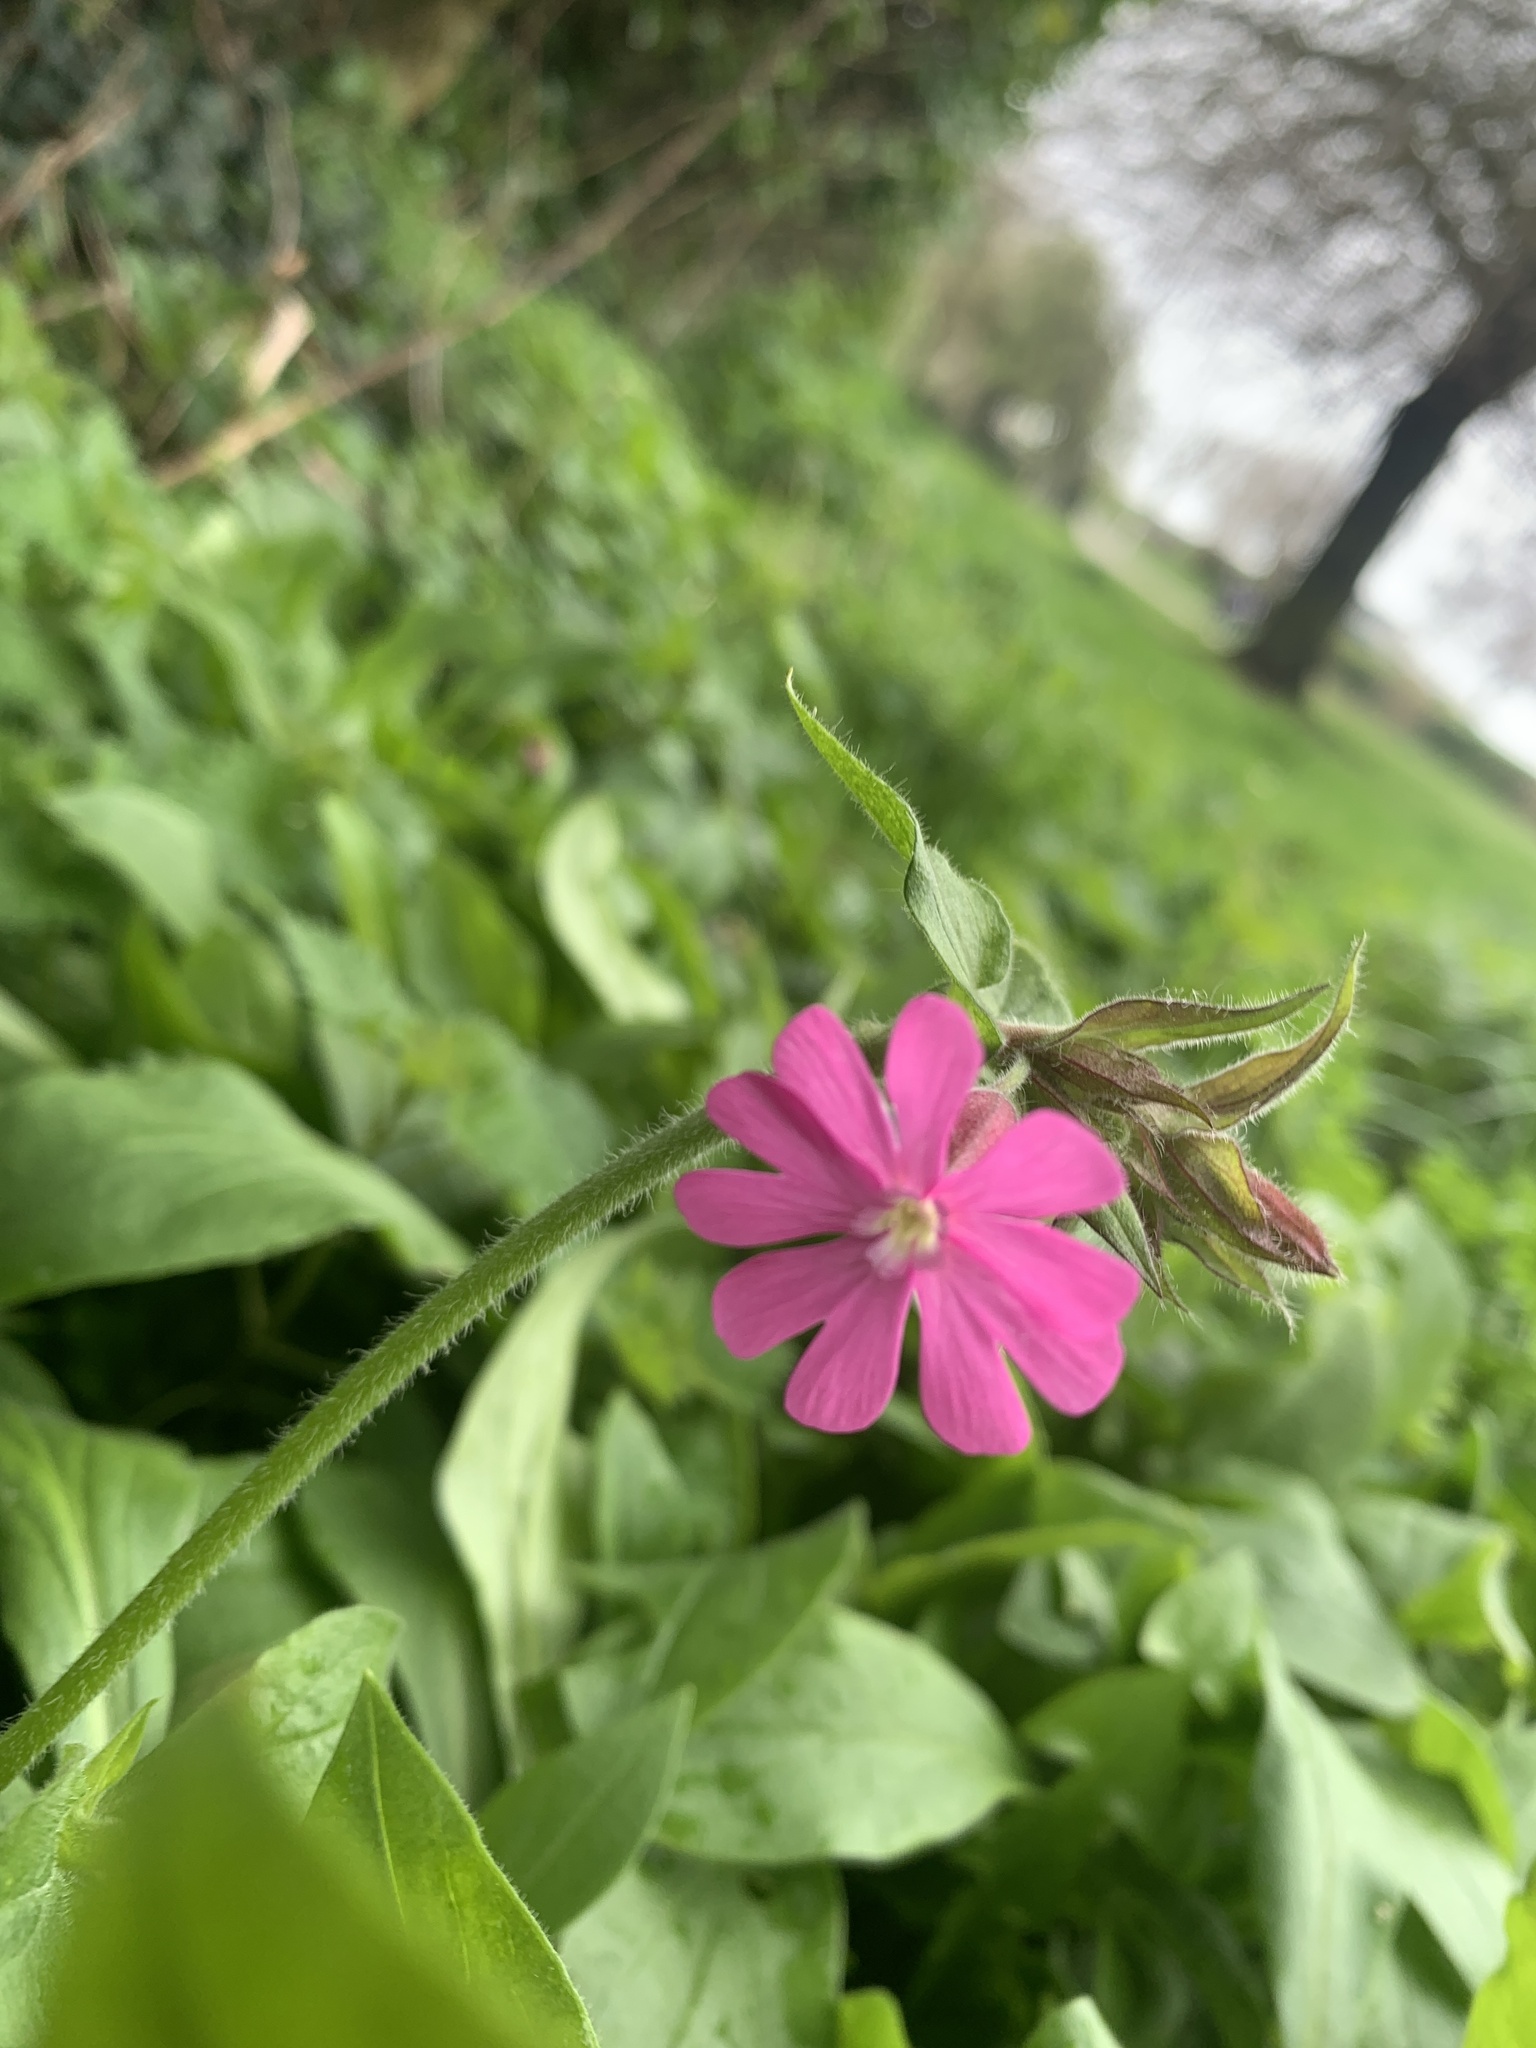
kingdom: Plantae
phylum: Tracheophyta
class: Magnoliopsida
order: Caryophyllales
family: Caryophyllaceae
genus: Silene
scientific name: Silene dioica
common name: Red campion
